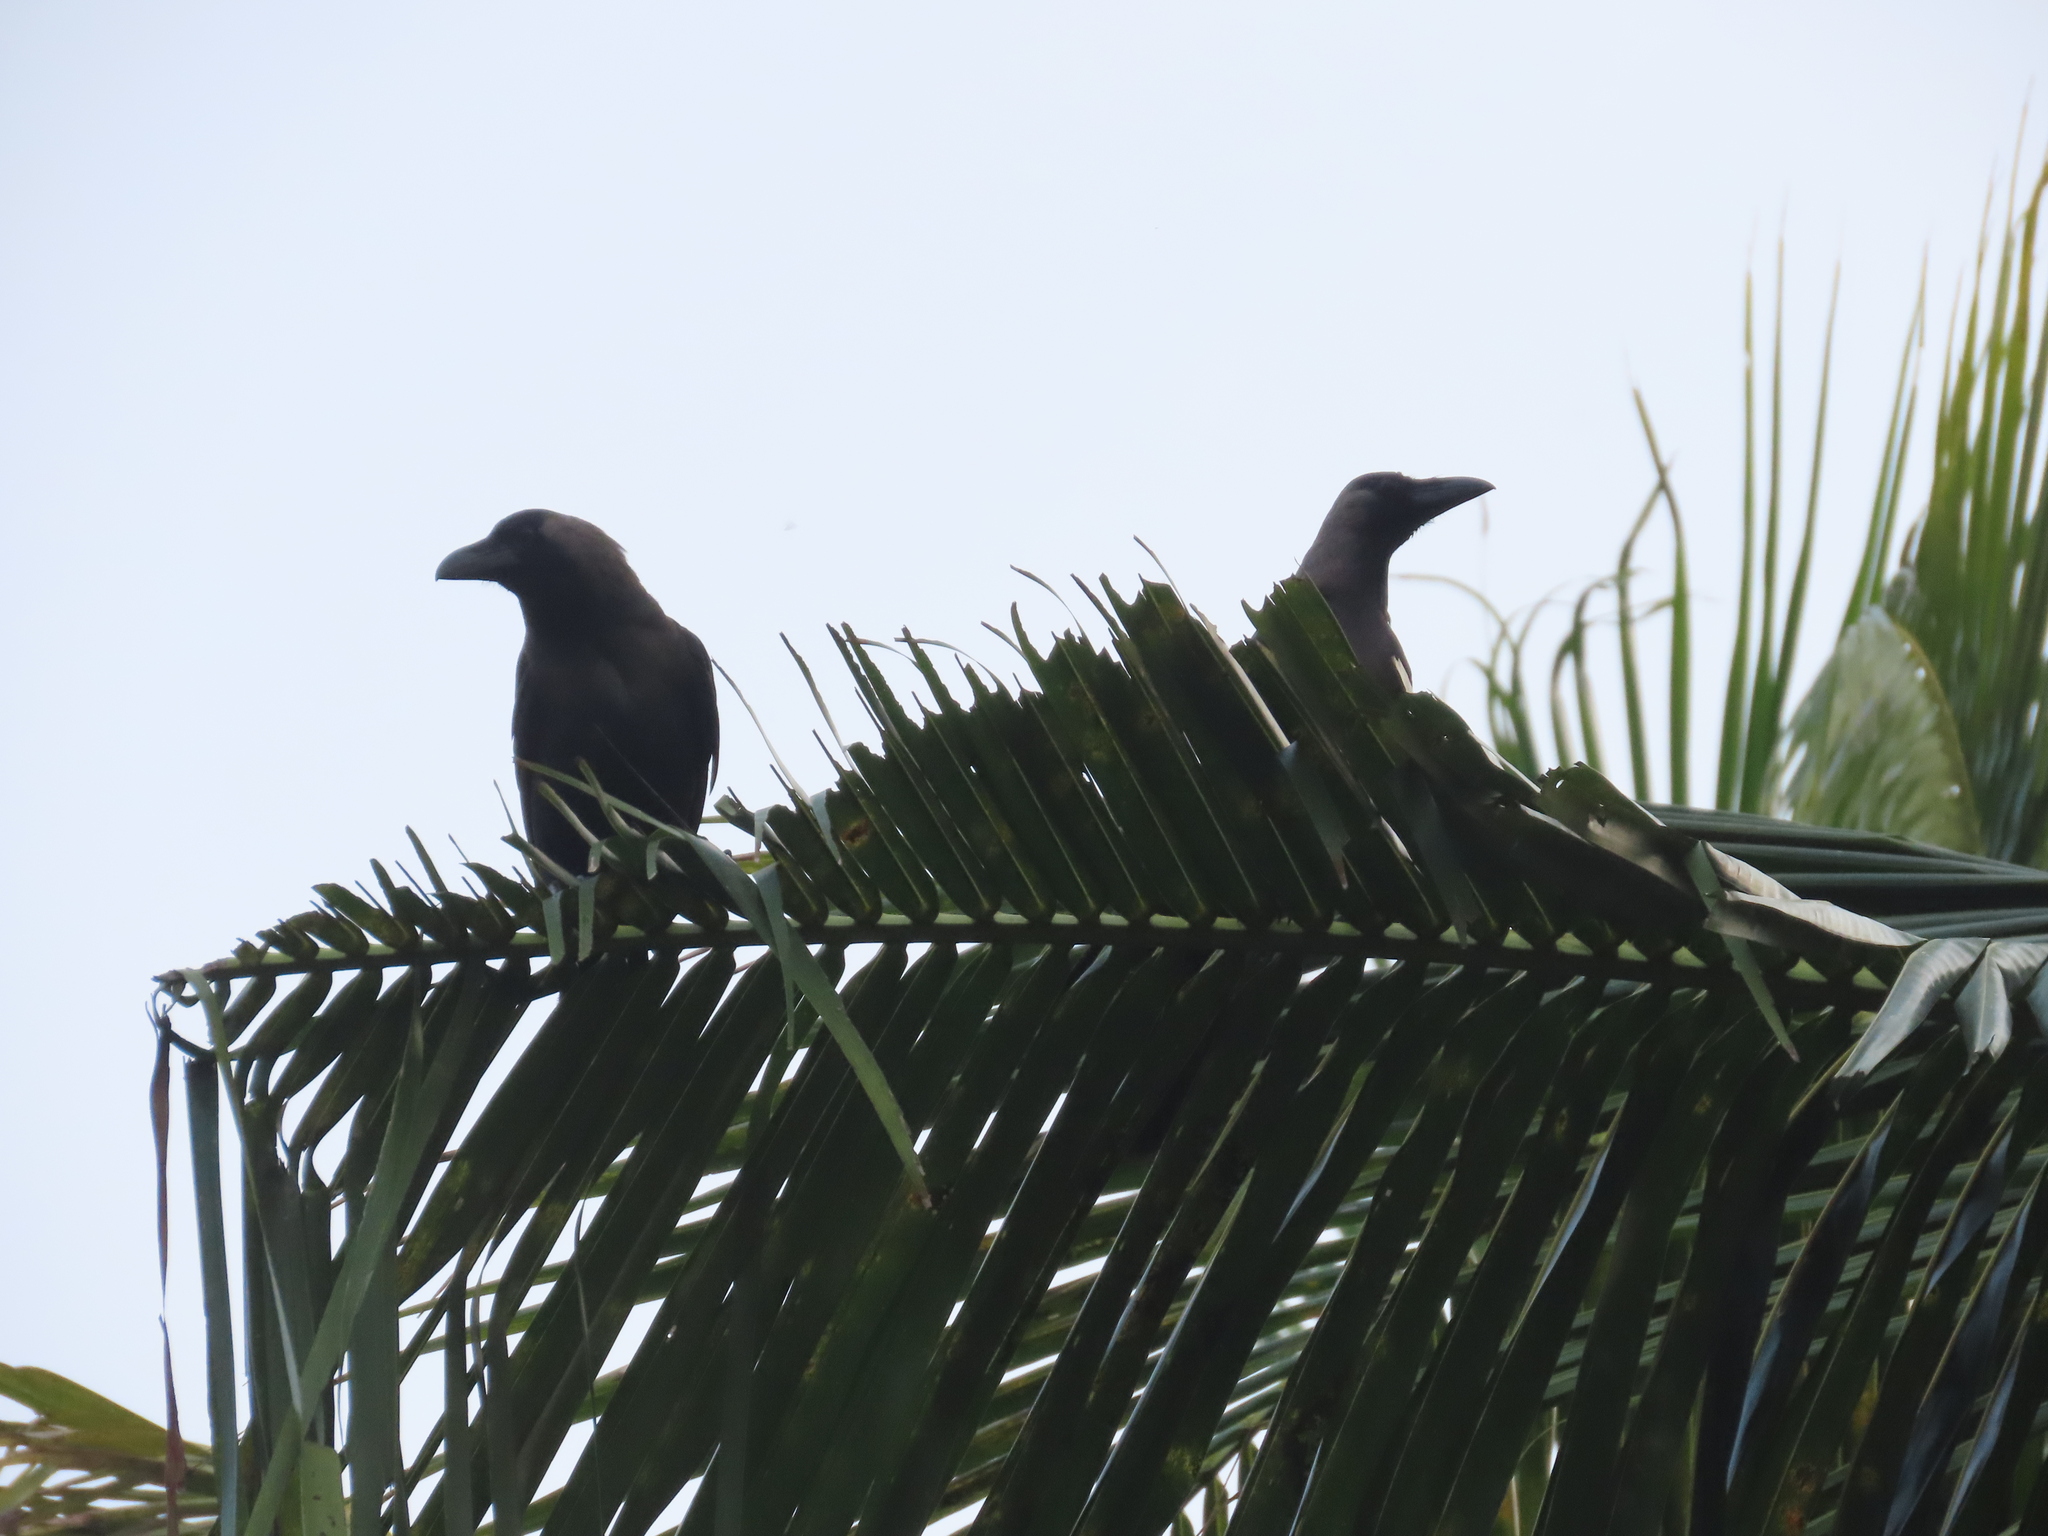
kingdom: Animalia
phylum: Chordata
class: Aves
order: Passeriformes
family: Corvidae
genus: Corvus
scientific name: Corvus splendens
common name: House crow
